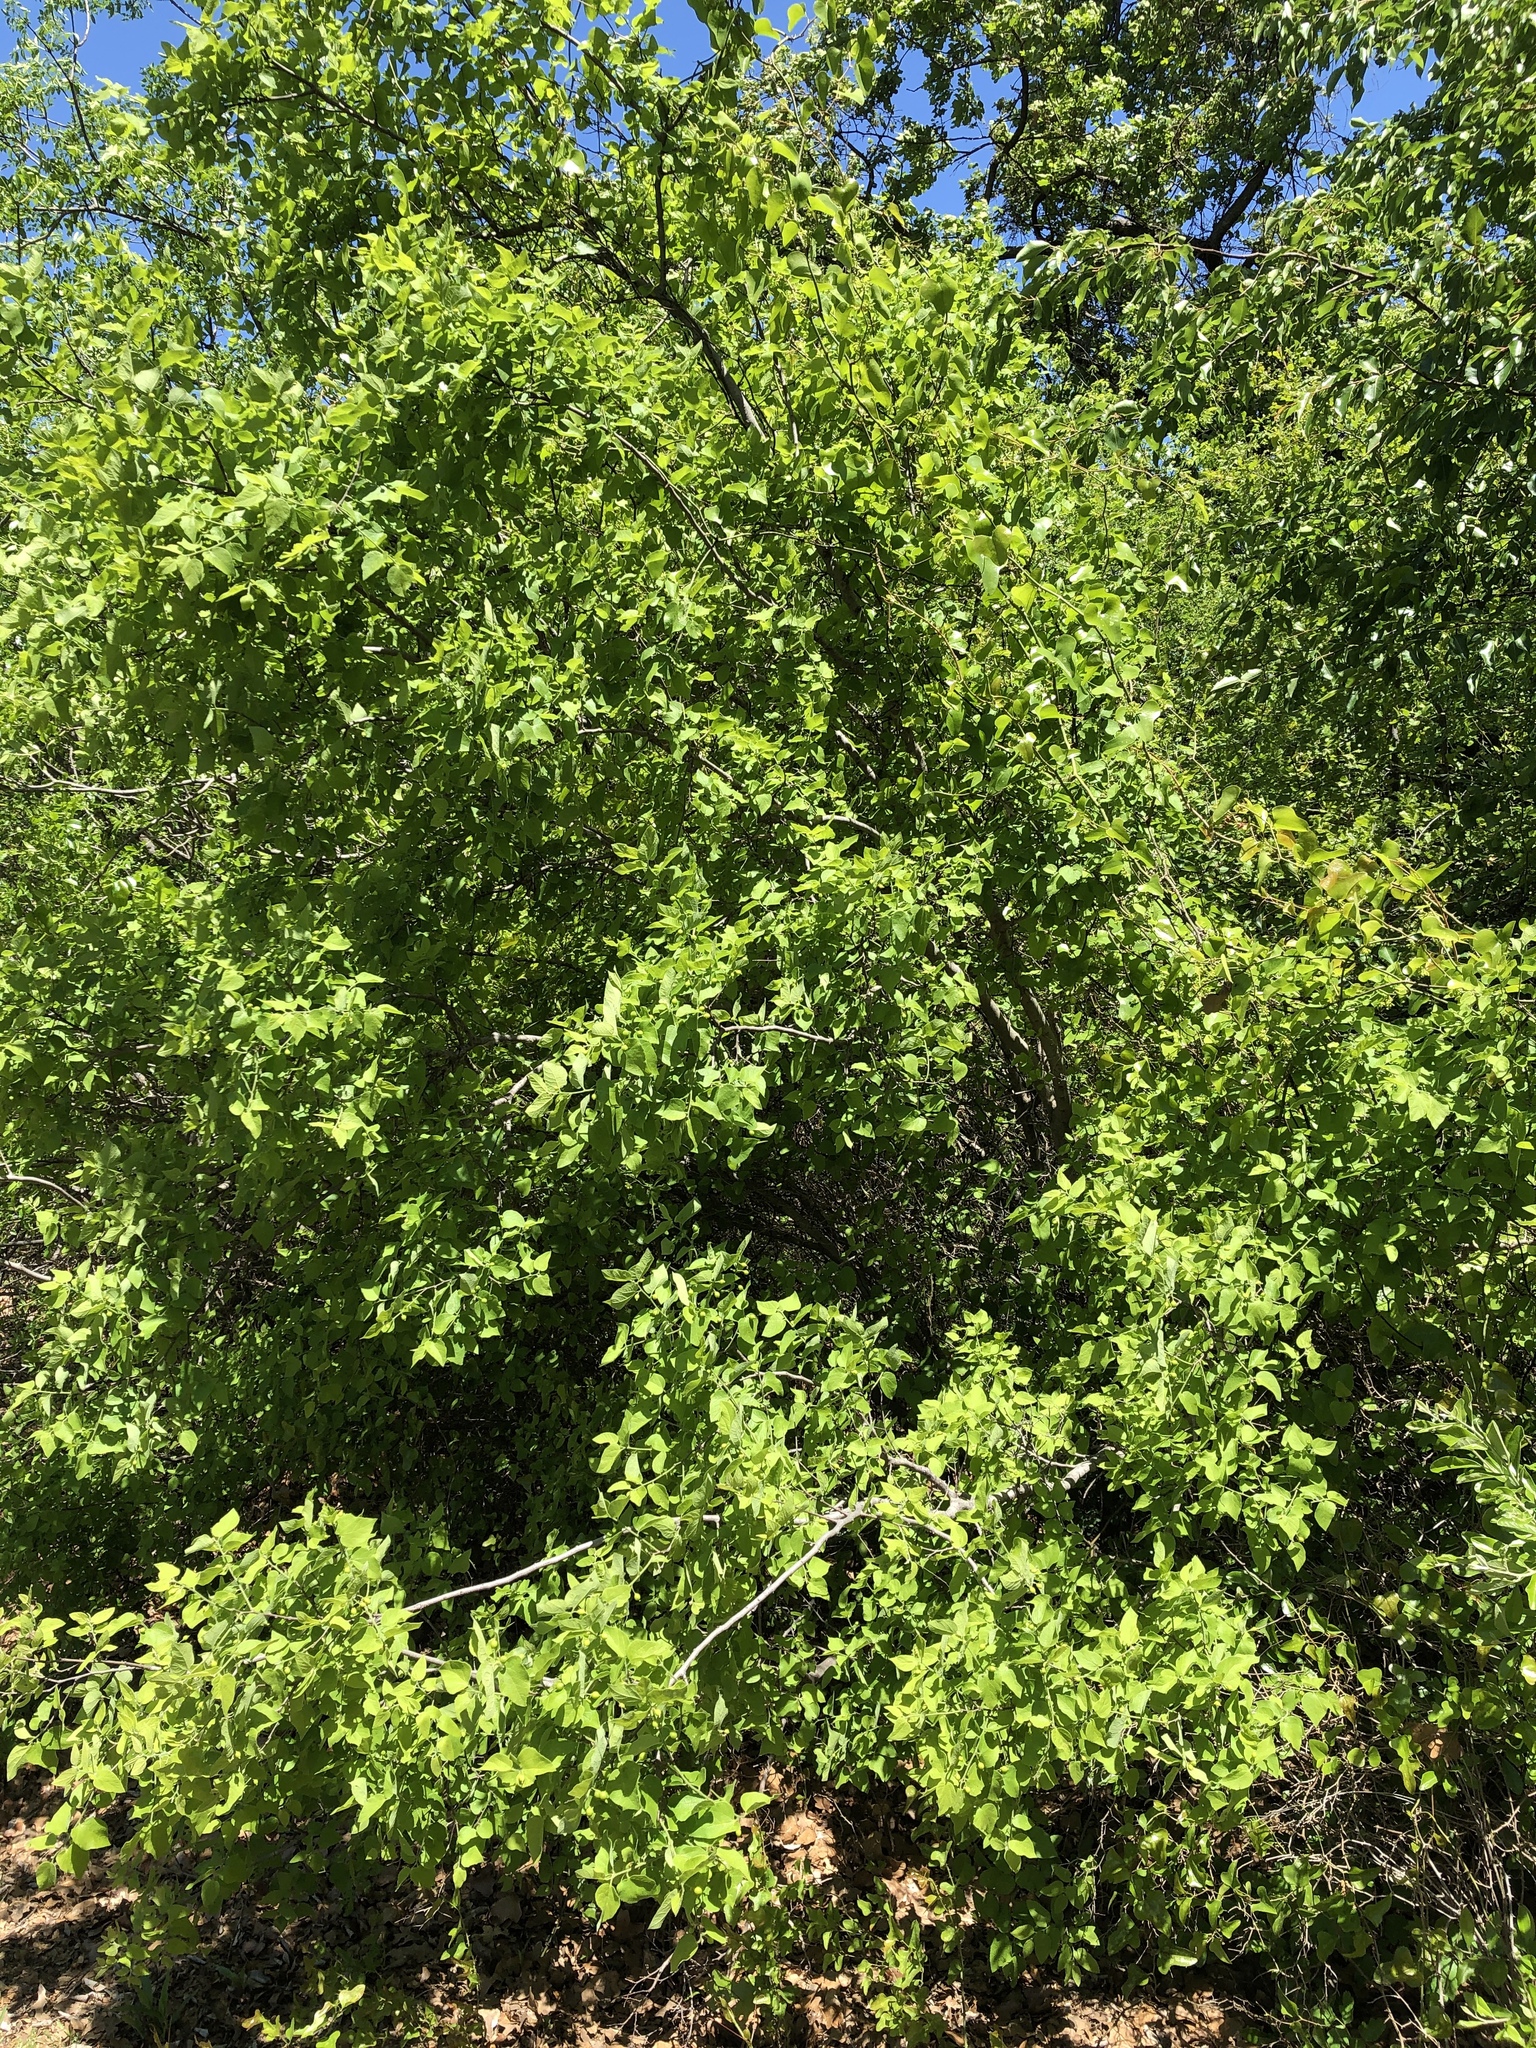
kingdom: Plantae
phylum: Tracheophyta
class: Magnoliopsida
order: Rosales
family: Cannabaceae
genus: Celtis
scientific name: Celtis reticulata
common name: Netleaf hackberry
